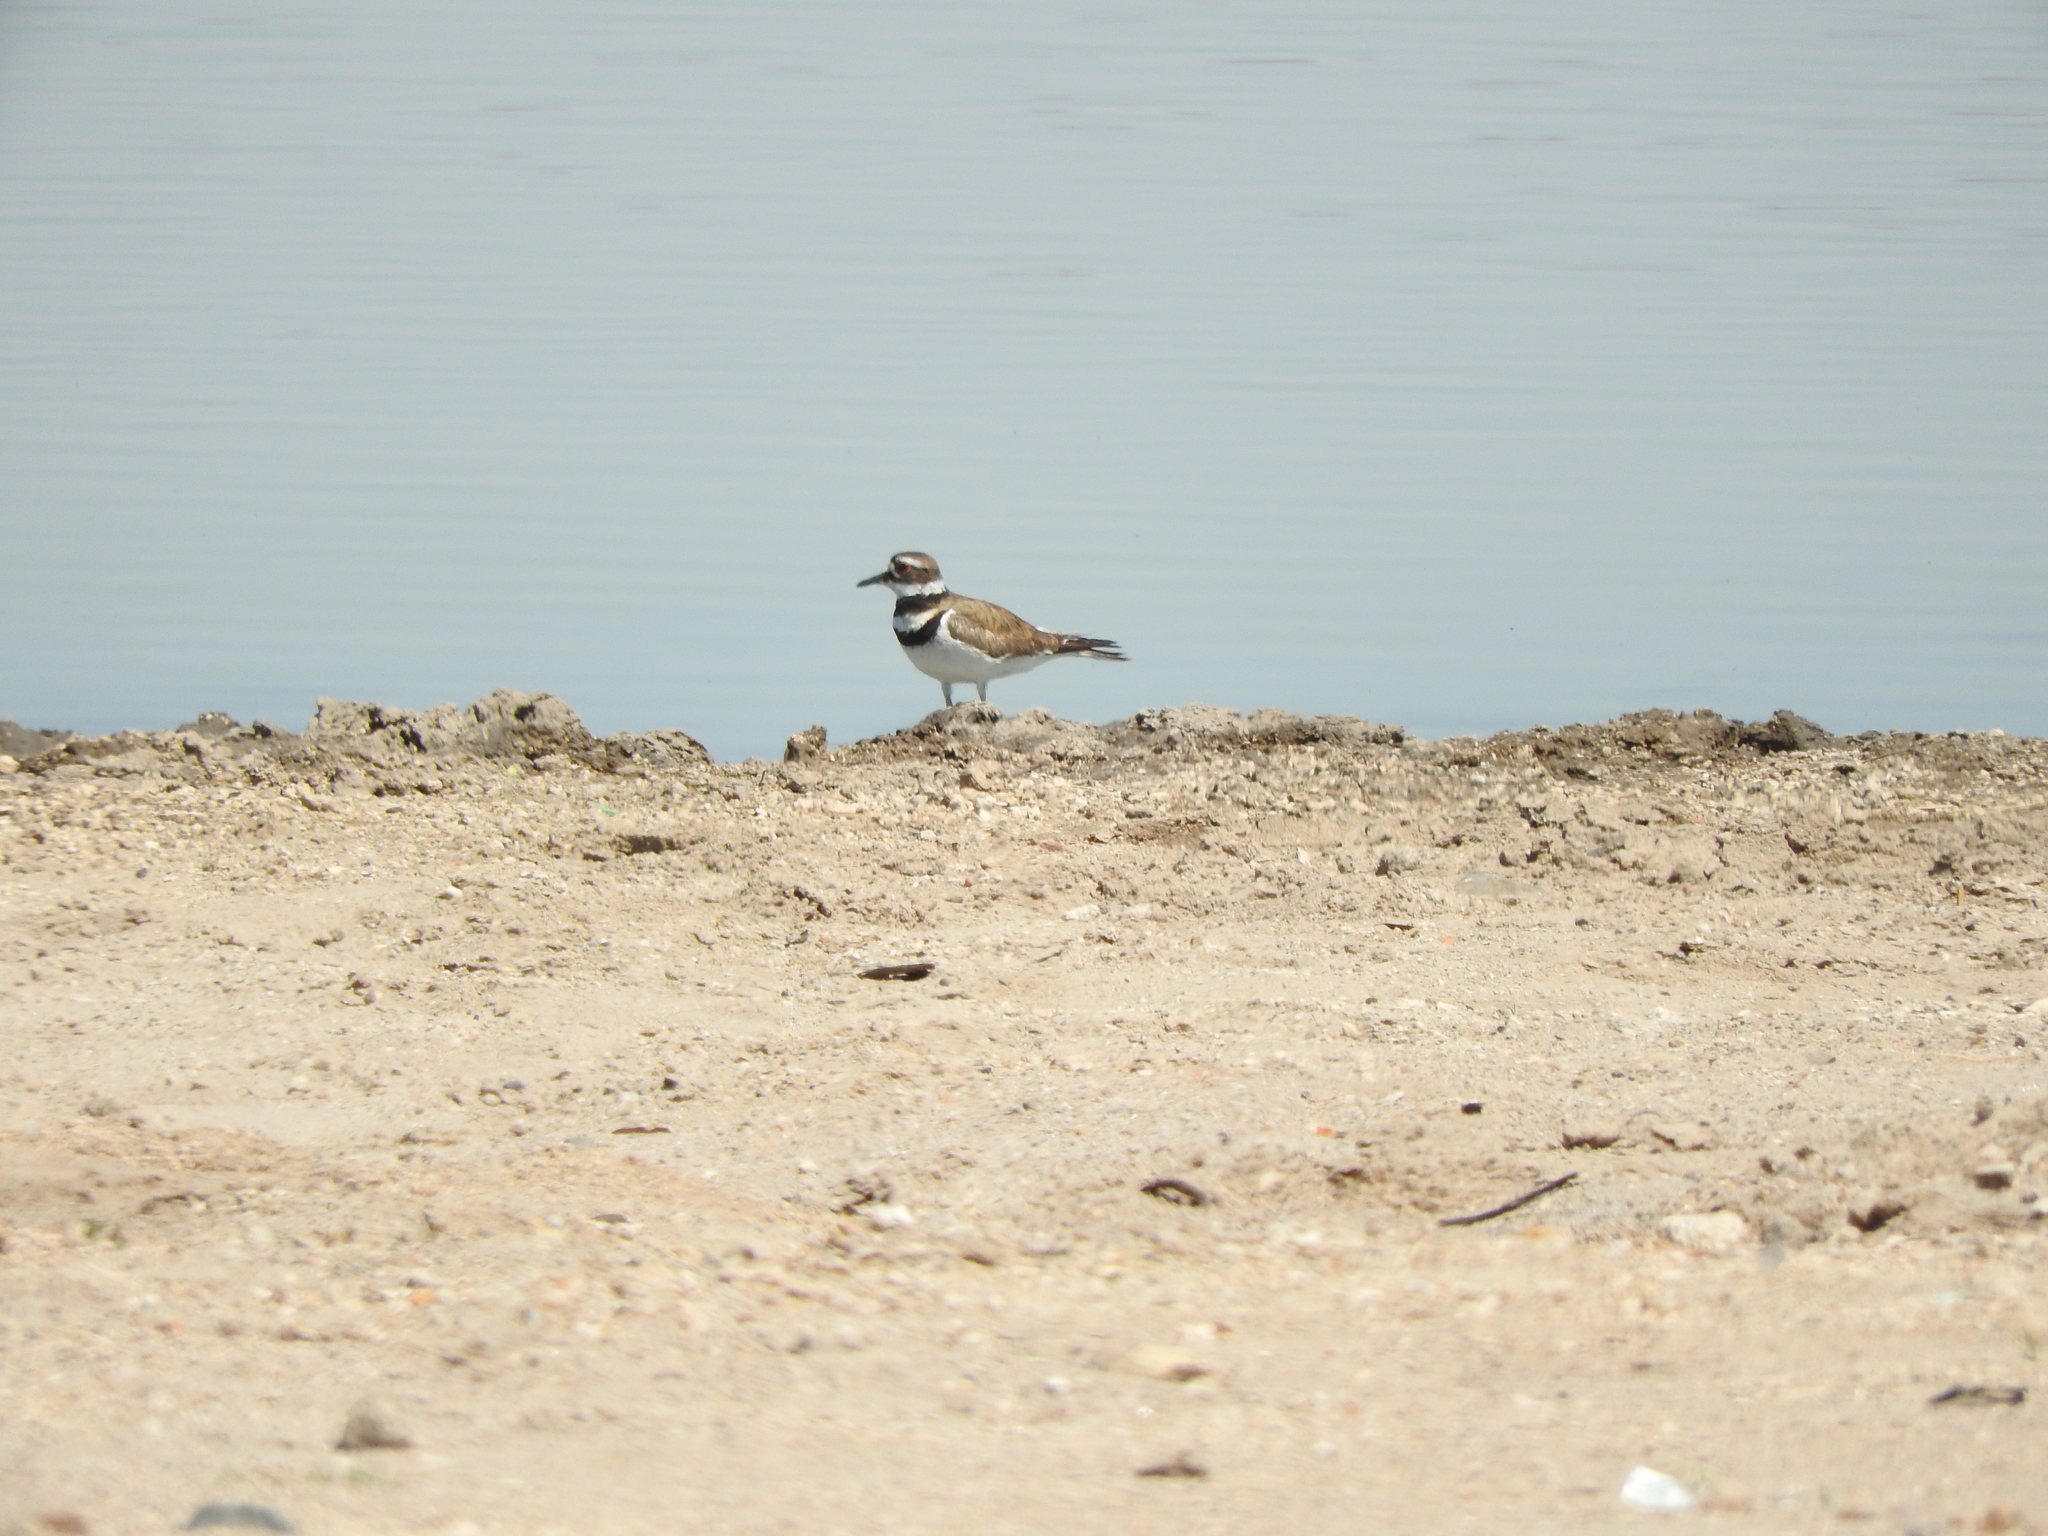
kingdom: Animalia
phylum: Chordata
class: Aves
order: Charadriiformes
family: Charadriidae
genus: Charadrius
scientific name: Charadrius vociferus
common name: Killdeer
